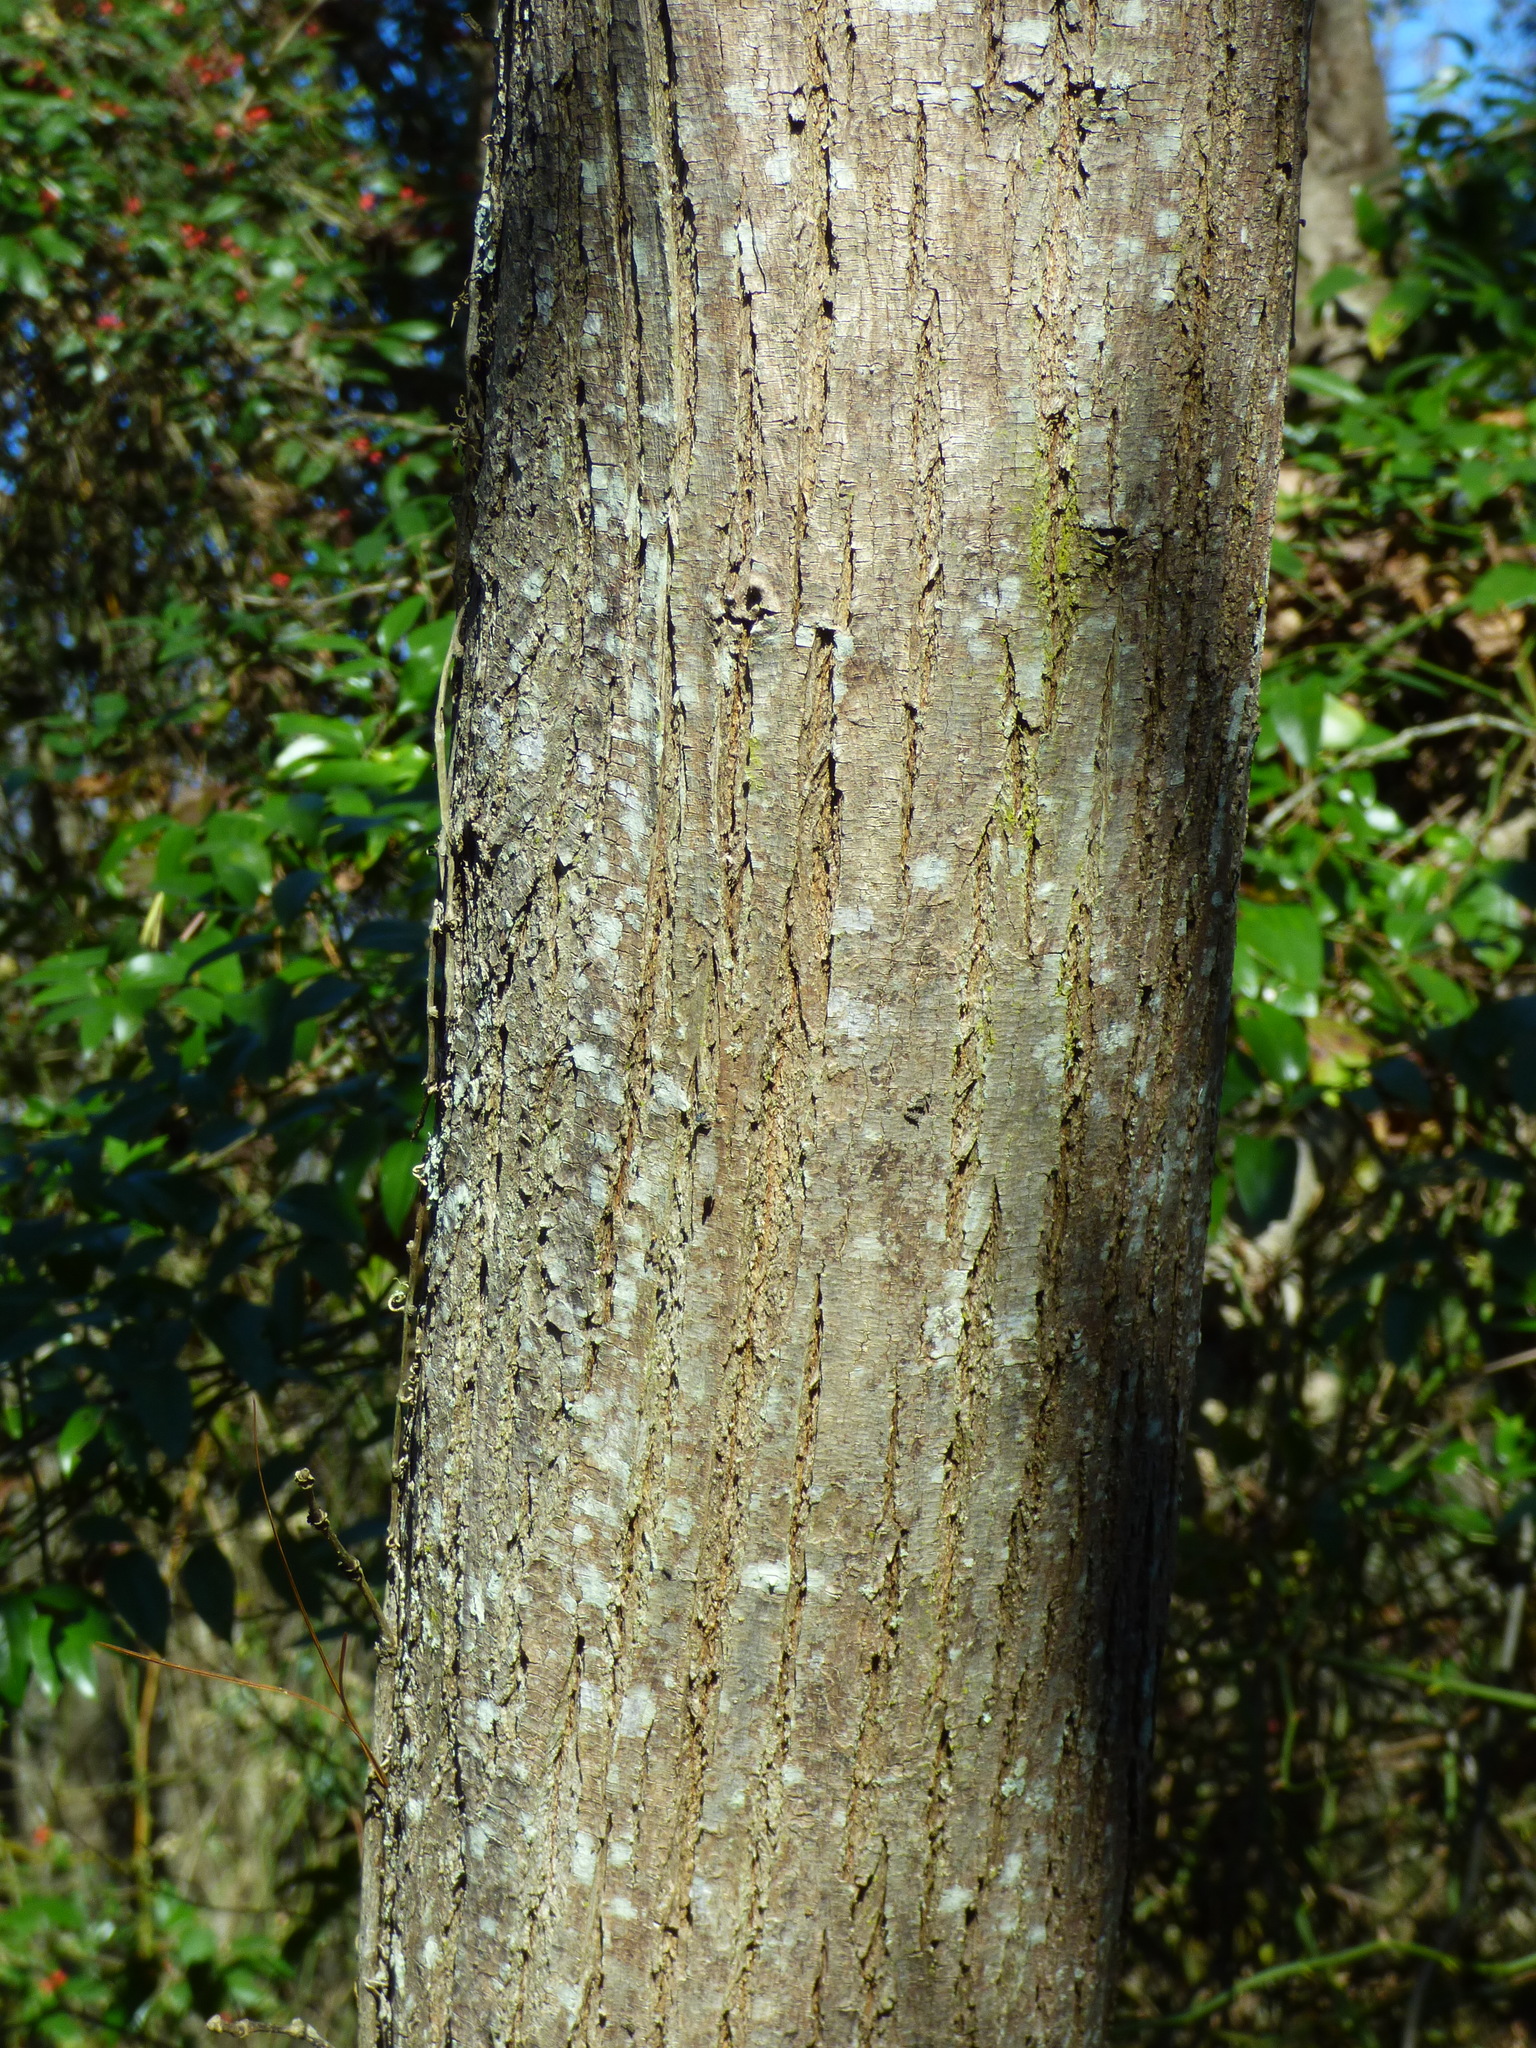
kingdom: Plantae
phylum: Tracheophyta
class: Magnoliopsida
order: Sapindales
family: Meliaceae
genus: Melia
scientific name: Melia azedarach
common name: Chinaberrytree
